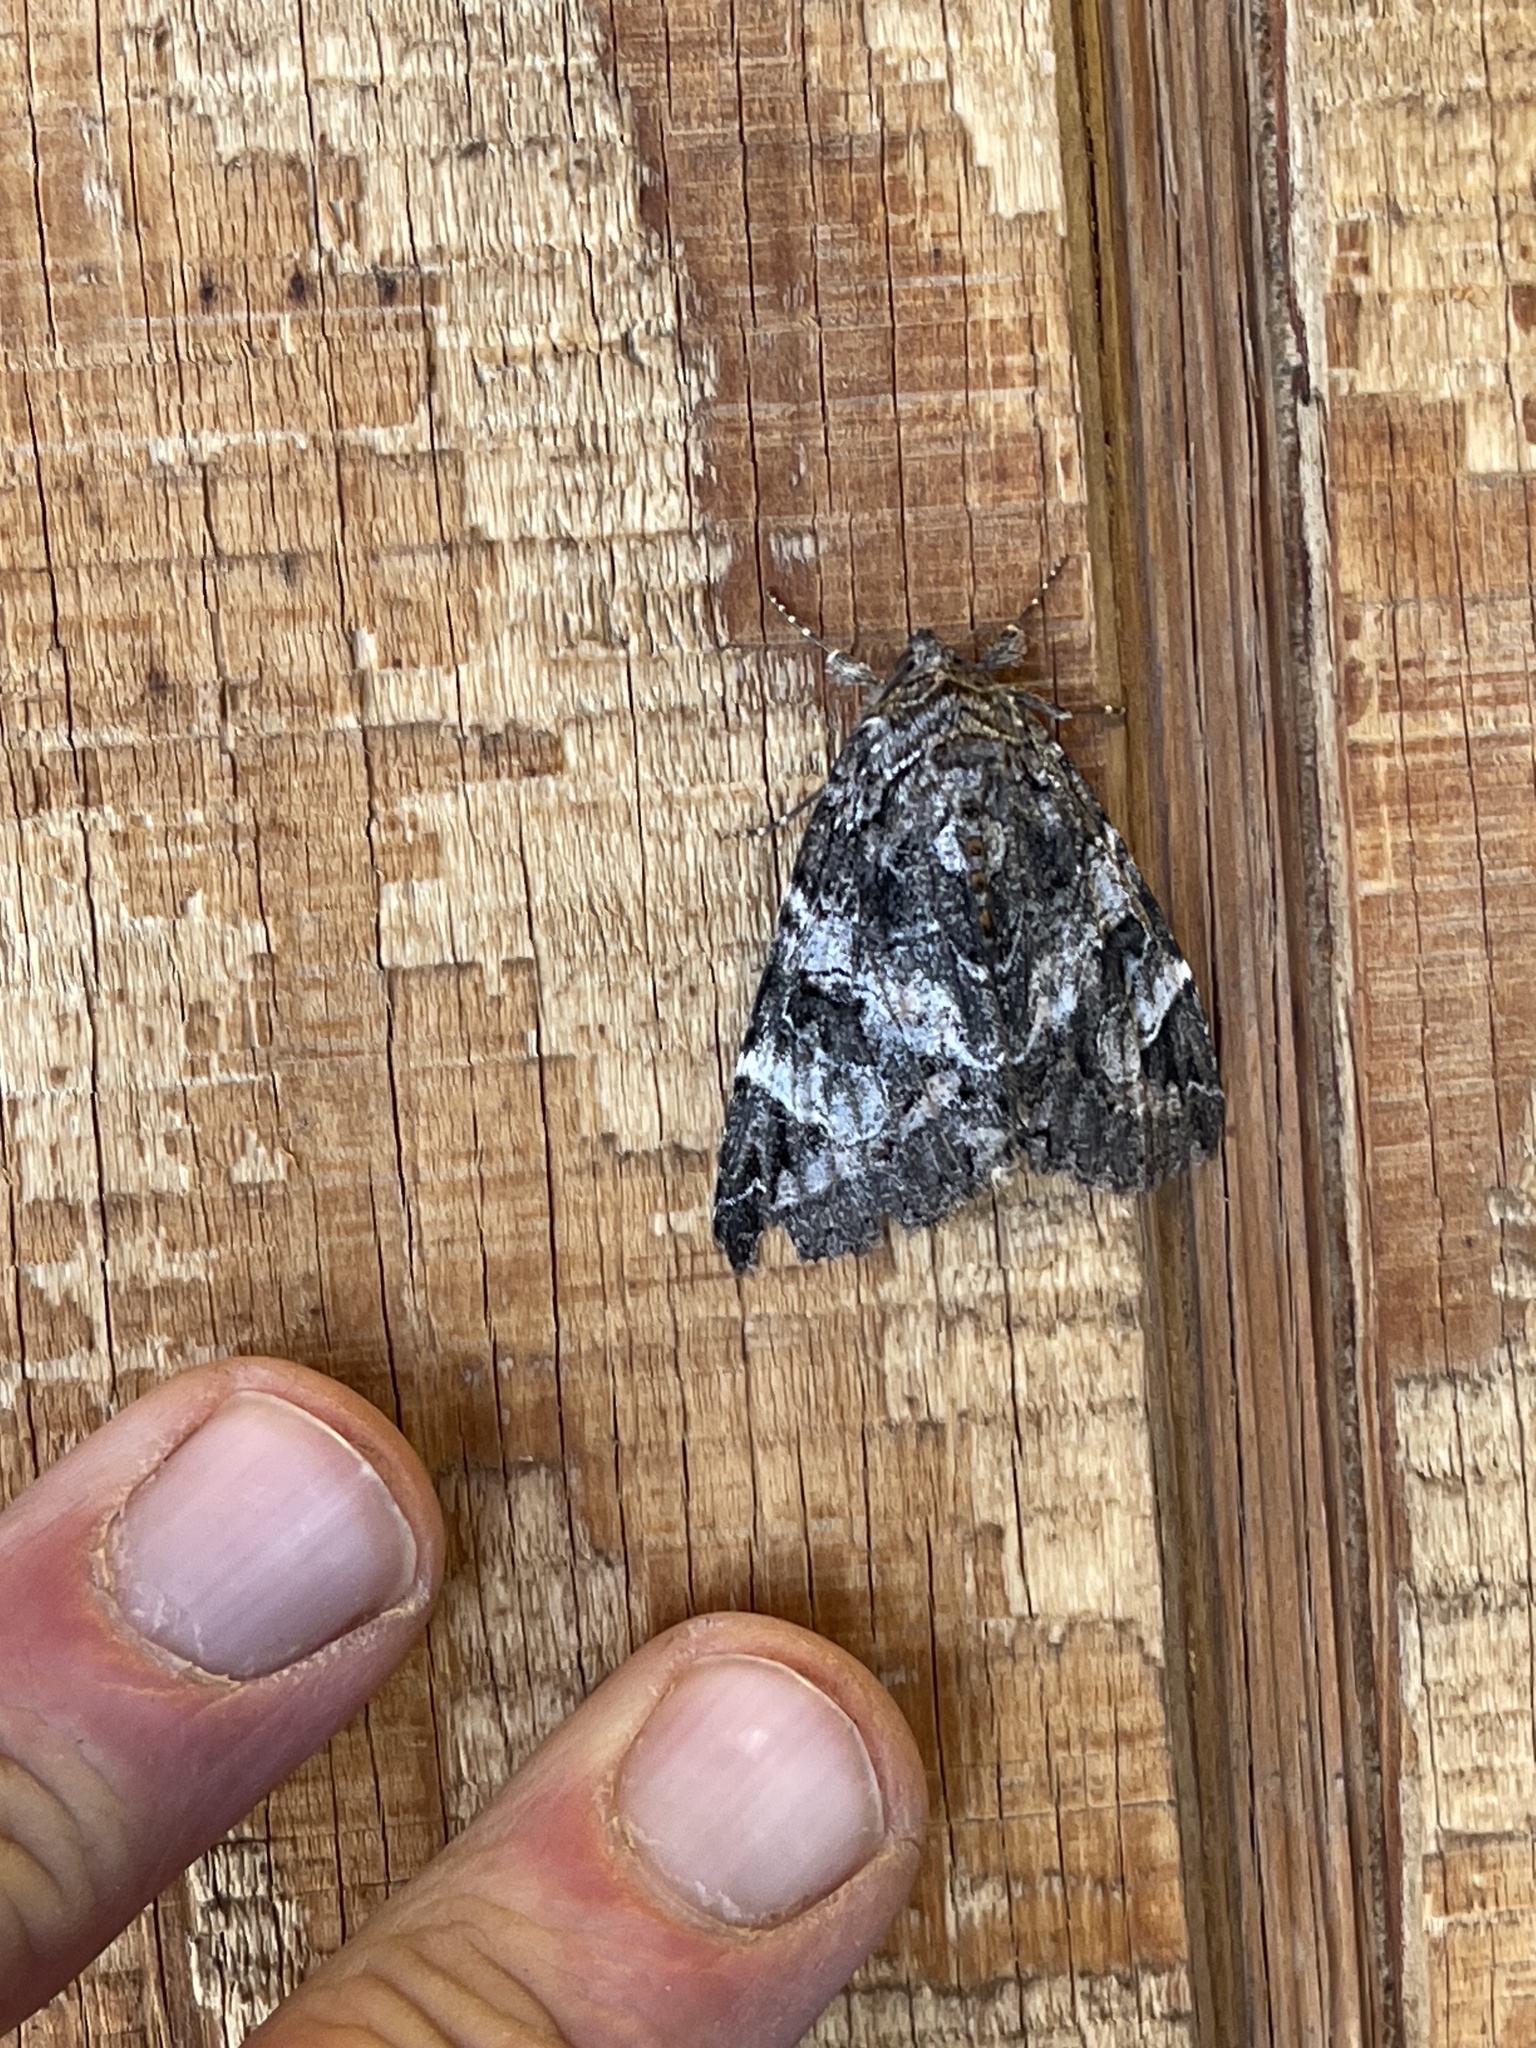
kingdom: Animalia
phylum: Arthropoda
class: Insecta
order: Lepidoptera
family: Erebidae
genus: Euparthenos
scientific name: Euparthenos nubilis
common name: Locust underwing
